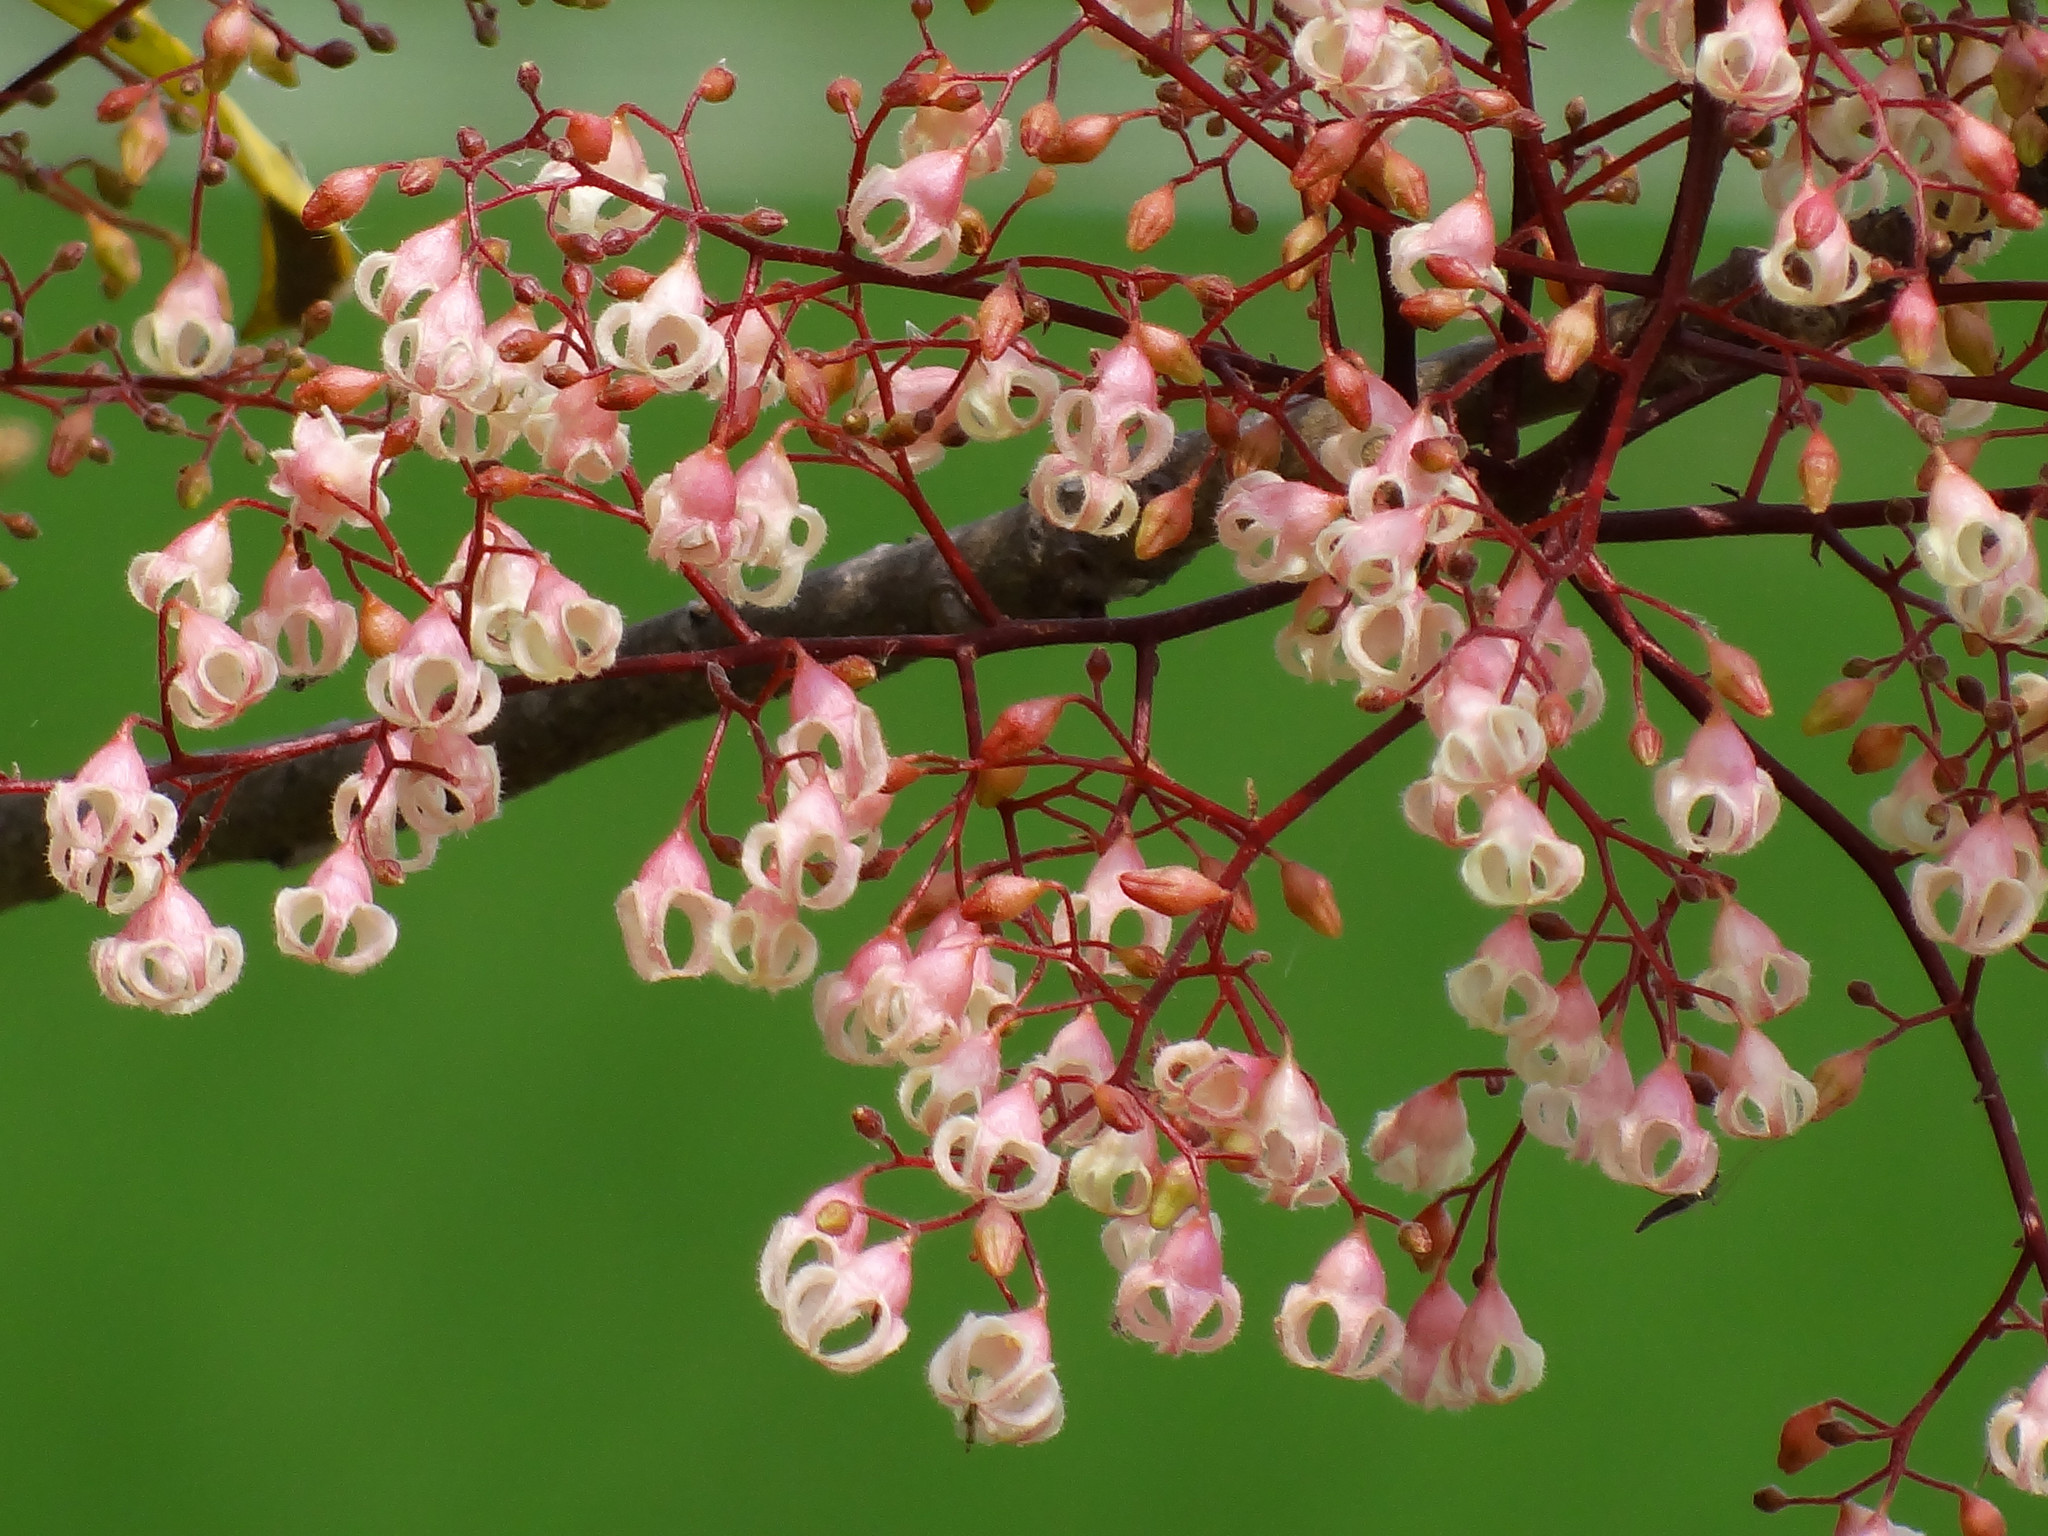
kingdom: Plantae
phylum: Tracheophyta
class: Magnoliopsida
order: Malvales
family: Malvaceae
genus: Sterculia
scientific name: Sterculia monosperma
